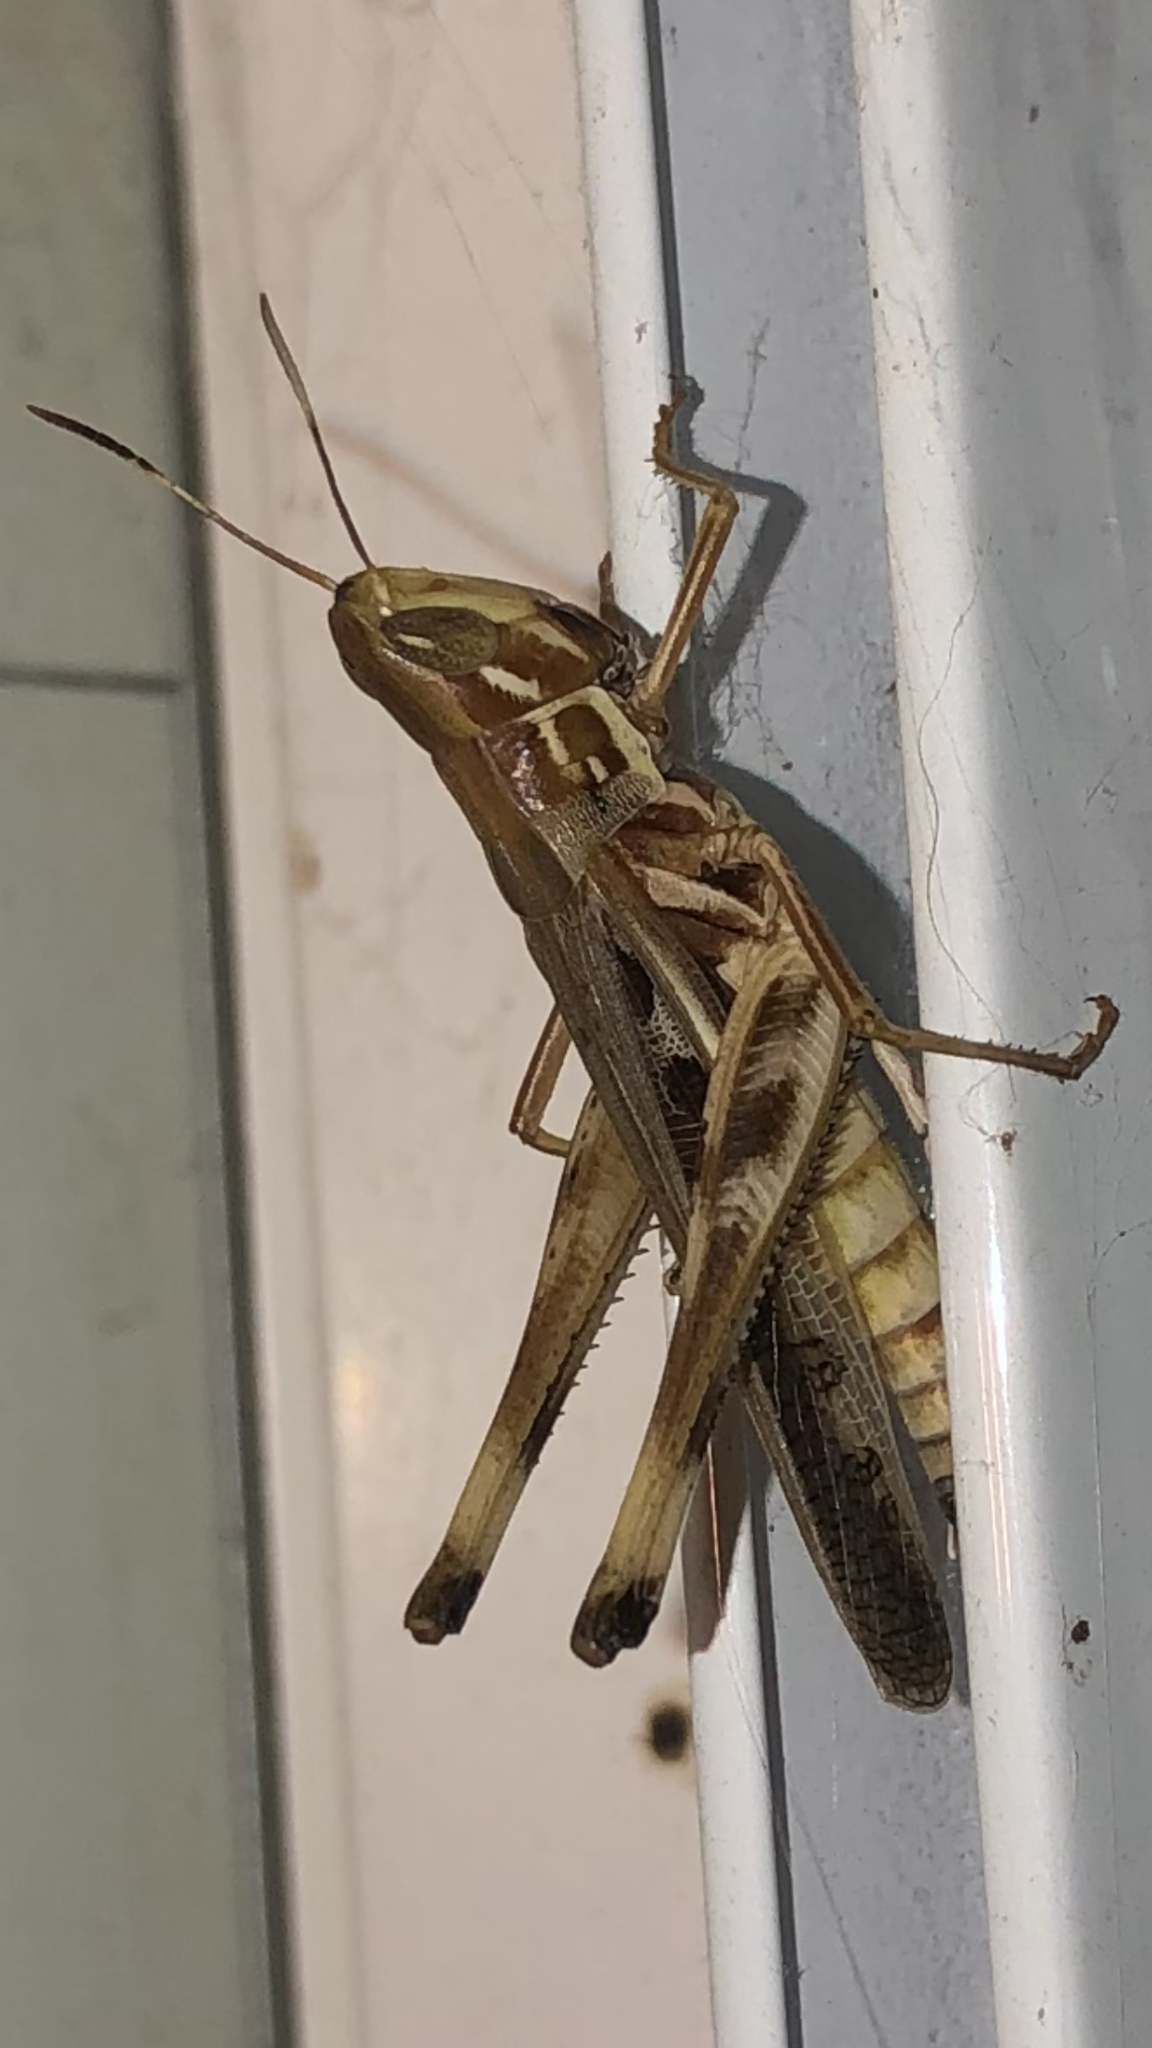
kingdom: Animalia
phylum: Arthropoda
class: Insecta
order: Orthoptera
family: Acrididae
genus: Syrbula
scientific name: Syrbula admirabilis
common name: Handsome grasshopper
